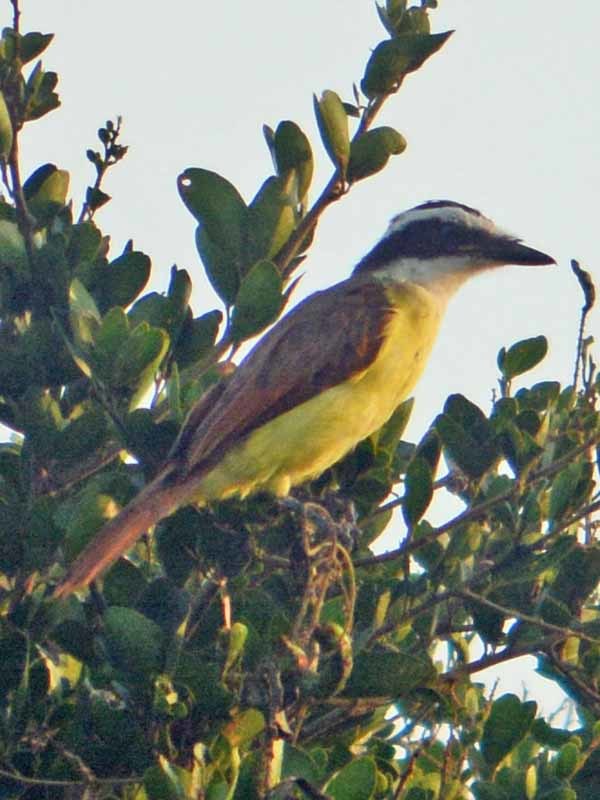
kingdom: Animalia
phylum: Chordata
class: Aves
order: Passeriformes
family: Tyrannidae
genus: Pitangus
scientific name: Pitangus sulphuratus
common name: Great kiskadee
